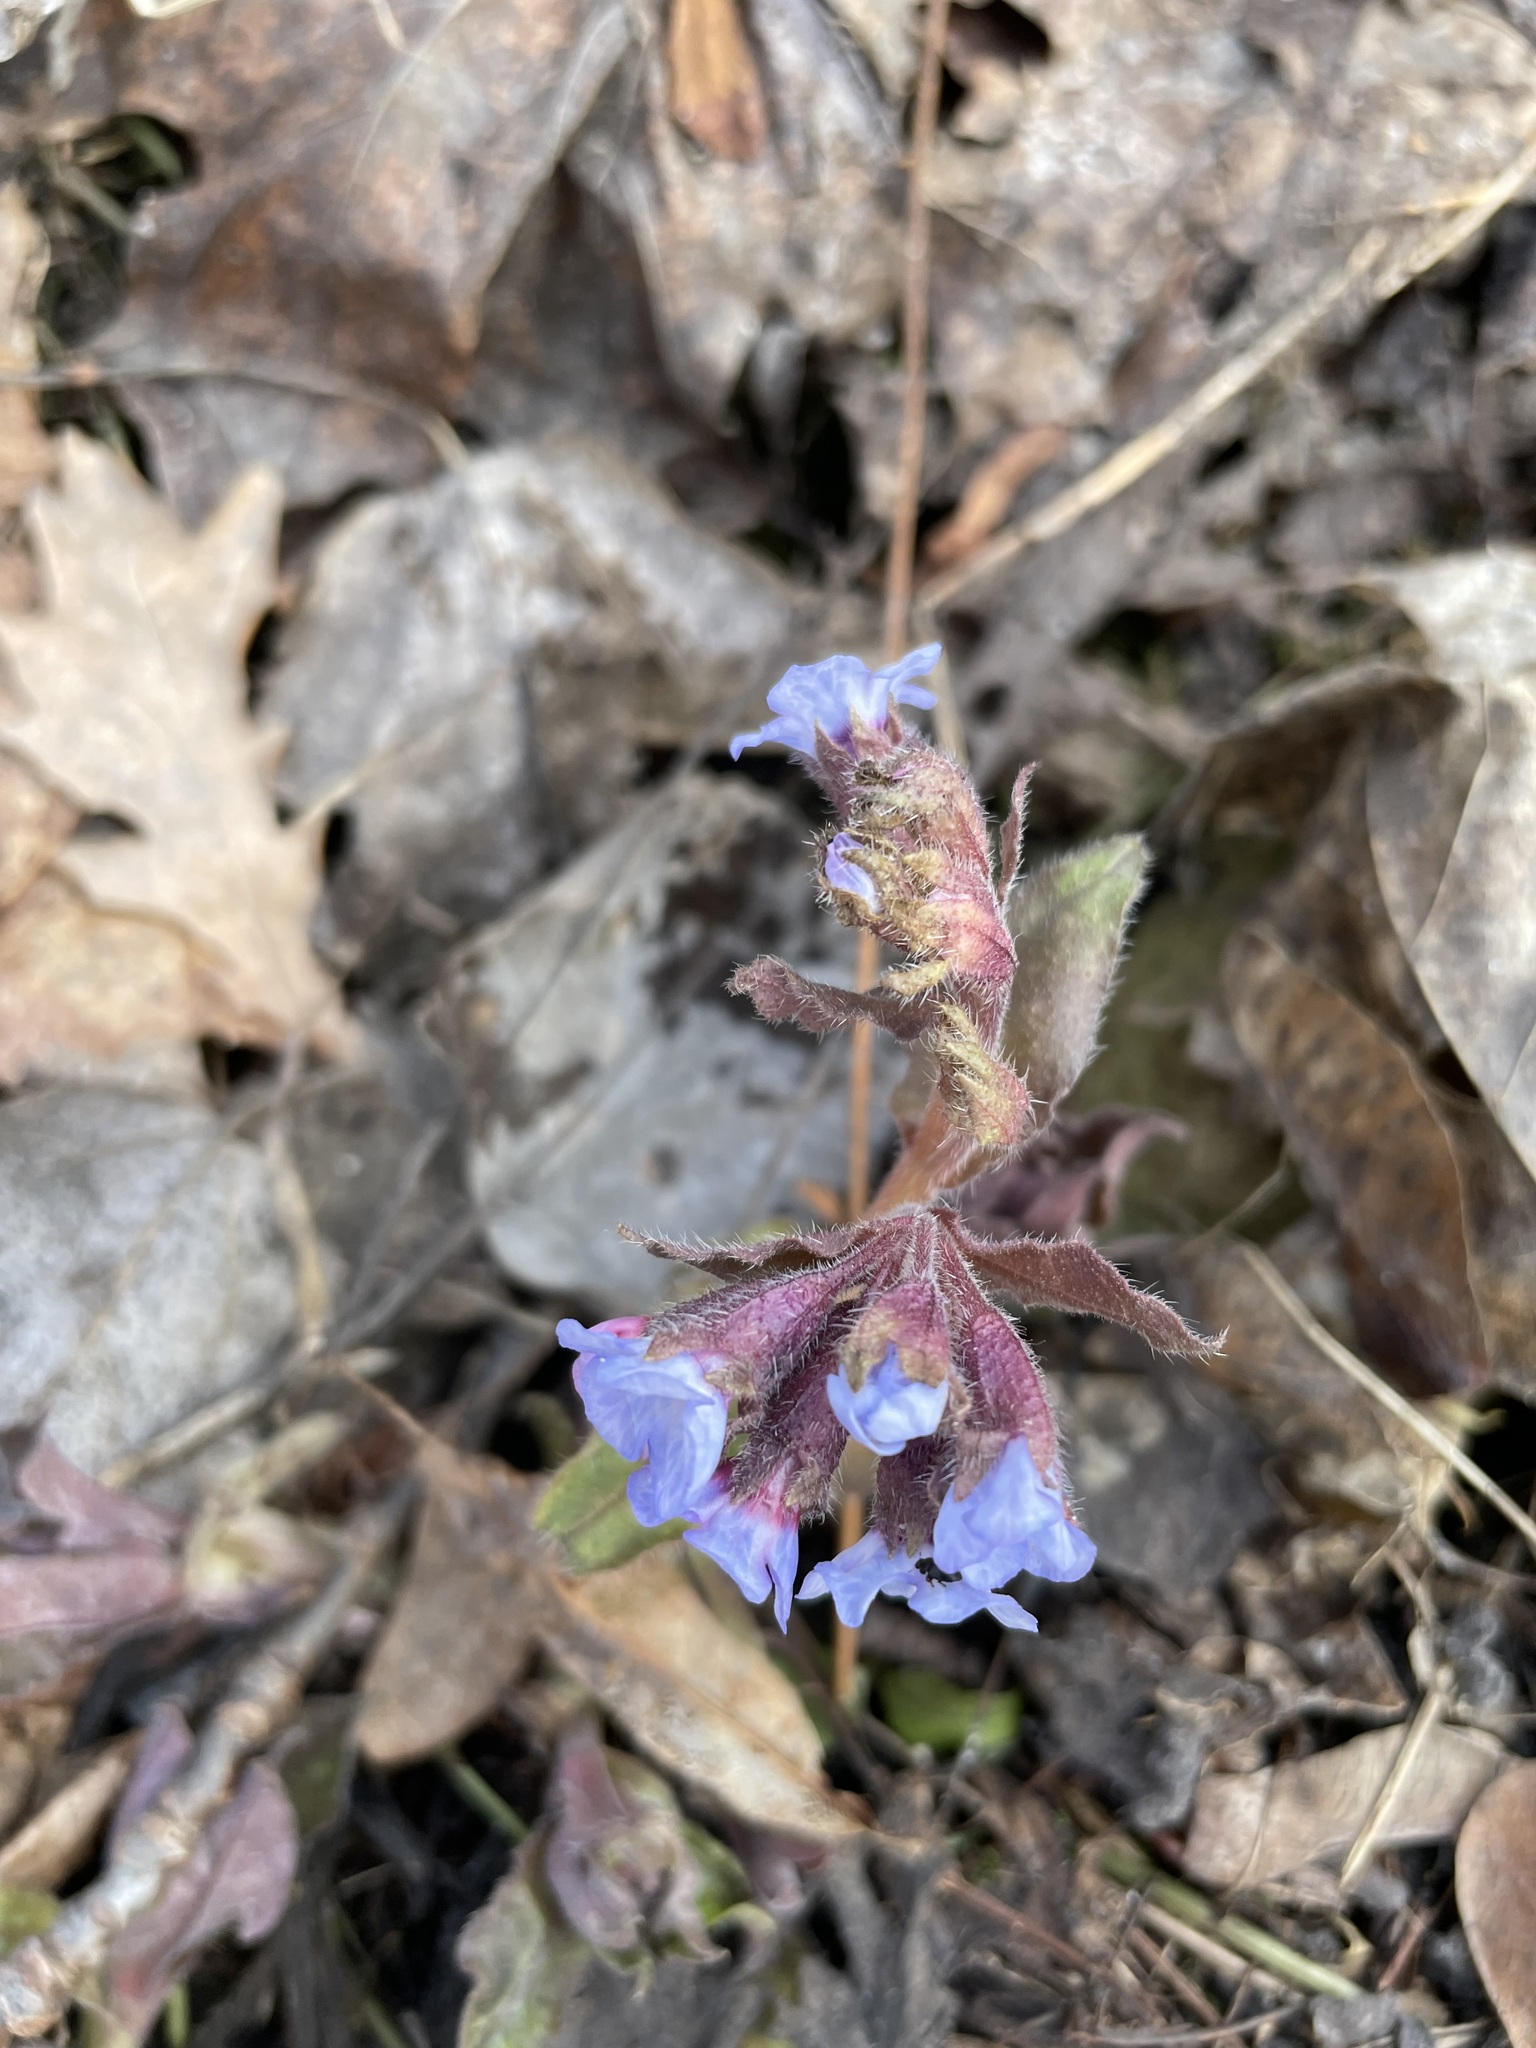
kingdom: Plantae
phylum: Tracheophyta
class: Magnoliopsida
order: Boraginales
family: Boraginaceae
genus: Pulmonaria
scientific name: Pulmonaria obscura
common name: Suffolk lungwort
